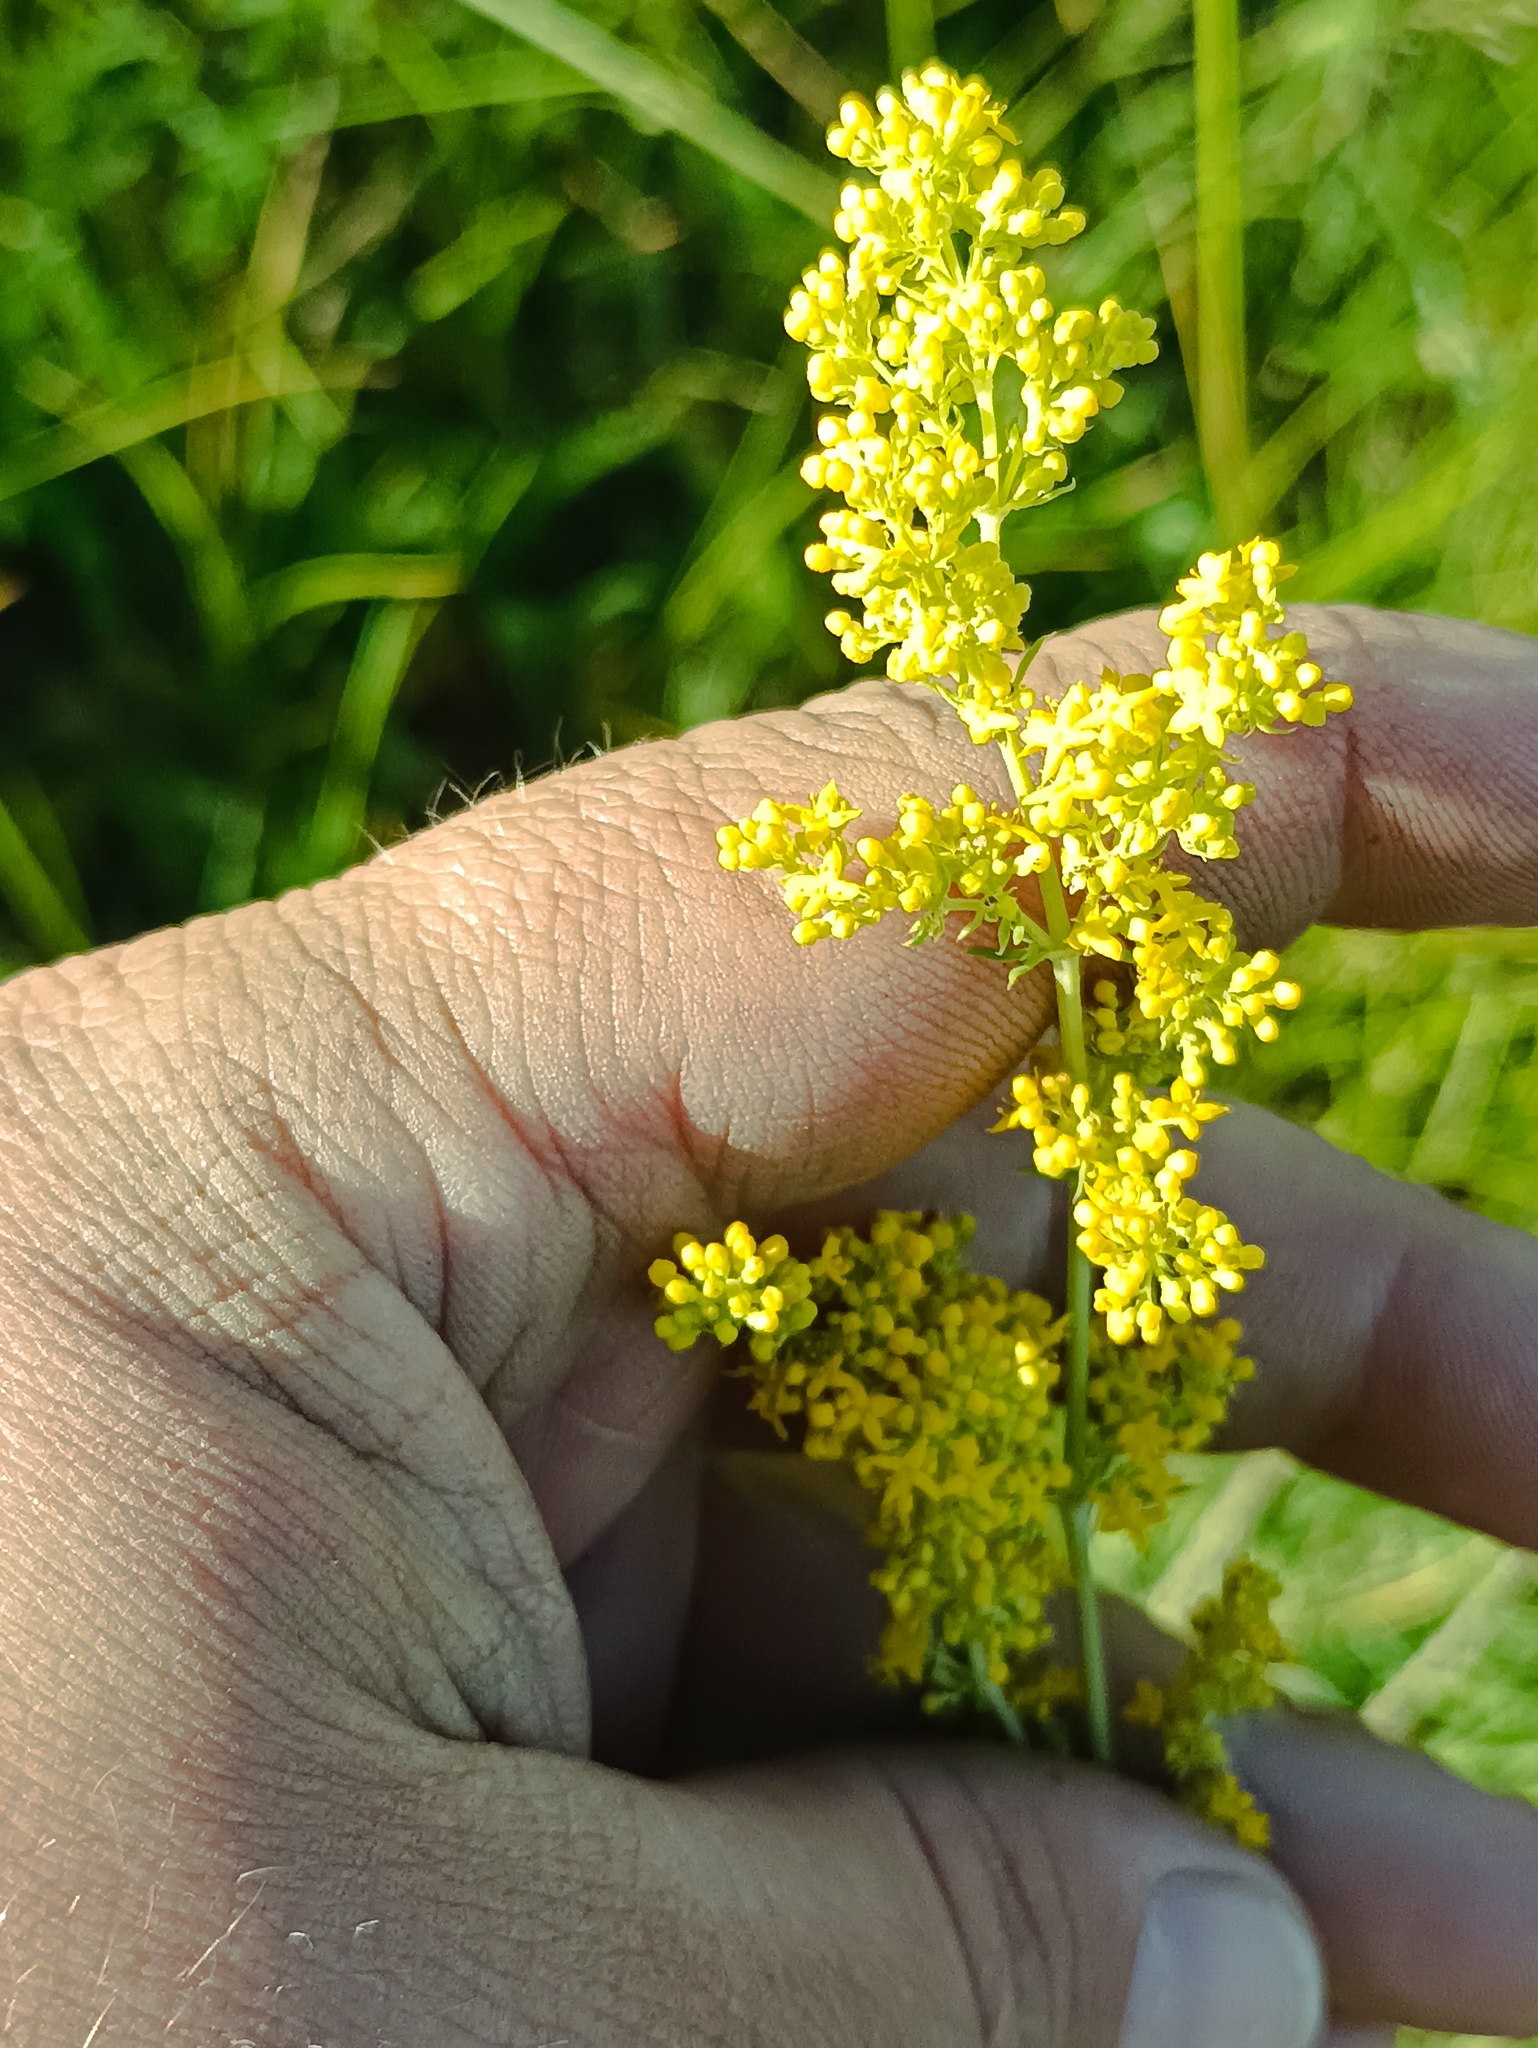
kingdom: Plantae
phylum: Tracheophyta
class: Magnoliopsida
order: Gentianales
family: Rubiaceae
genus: Galium
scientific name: Galium verum
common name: Lady's bedstraw
